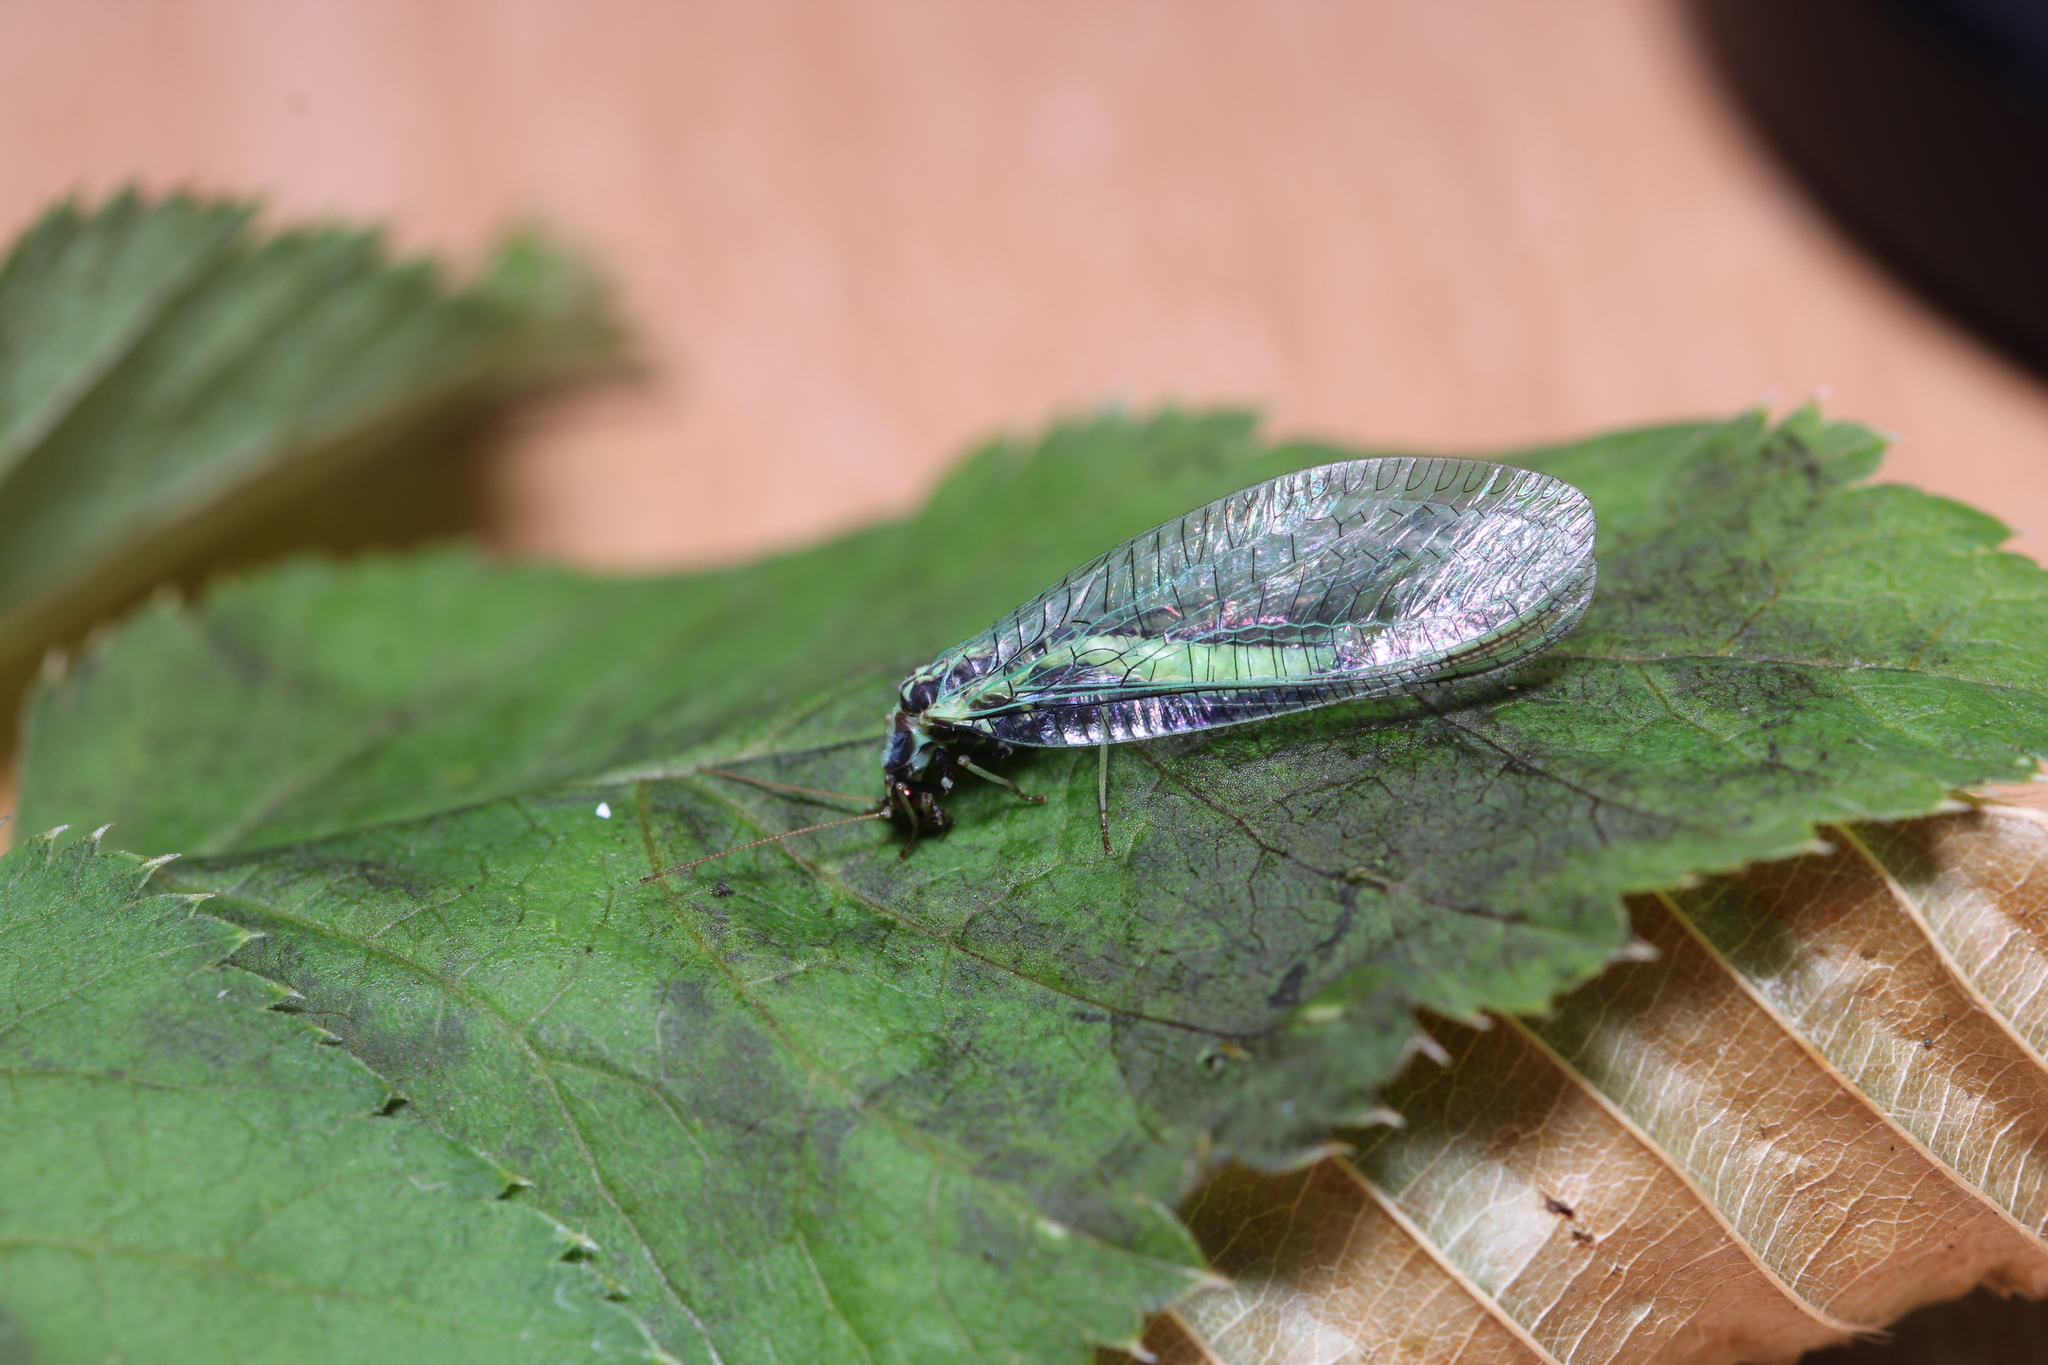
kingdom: Animalia
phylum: Arthropoda
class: Insecta
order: Neuroptera
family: Chrysopidae
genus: Chrysopa
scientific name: Chrysopa dorsalis
